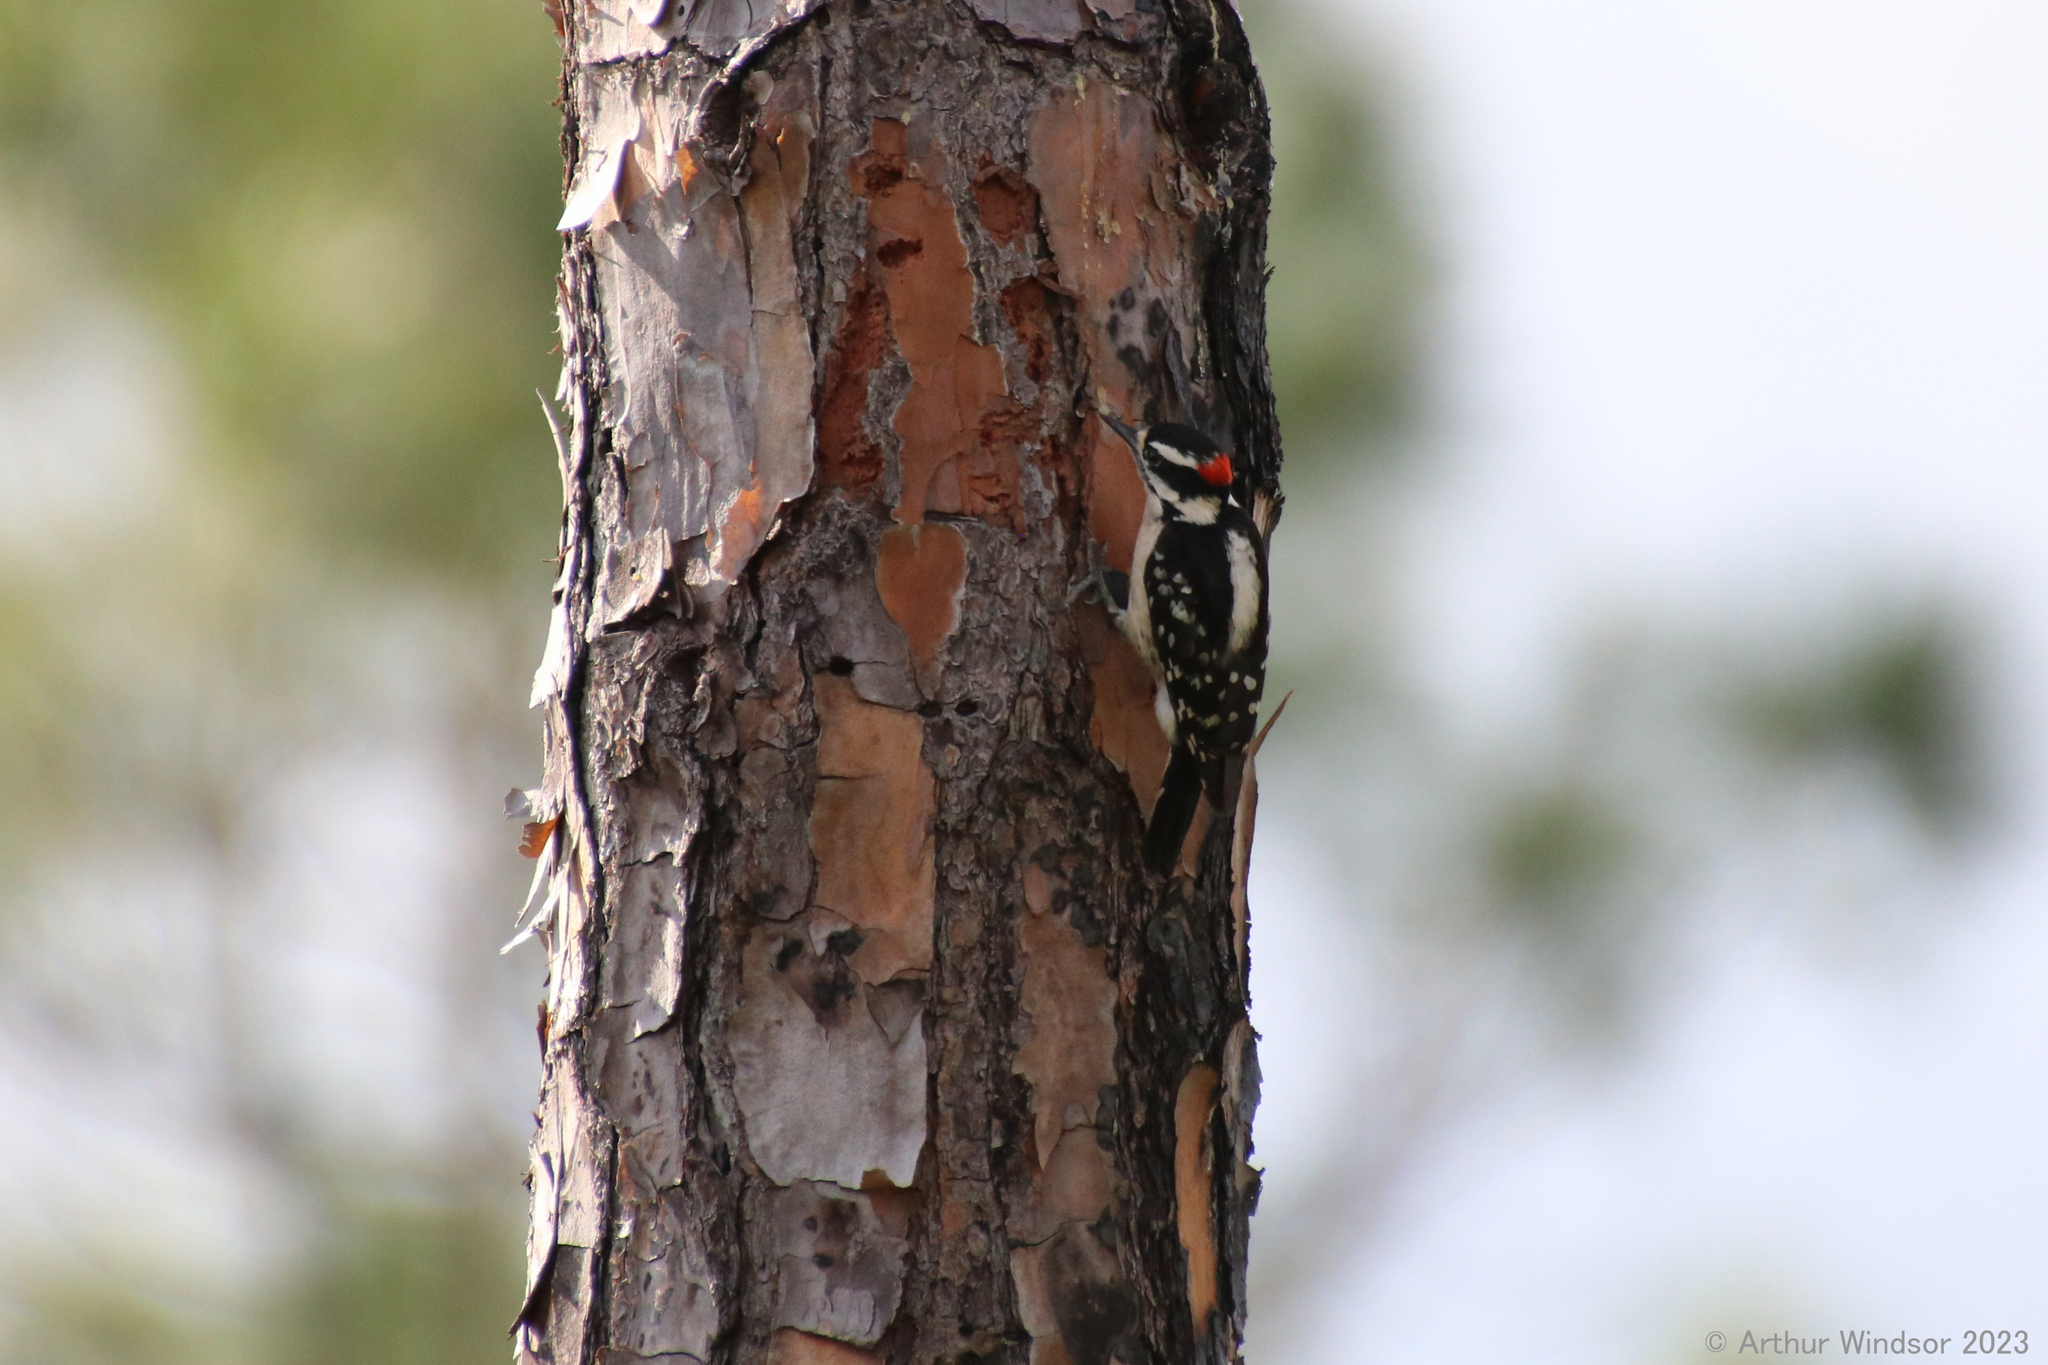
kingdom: Animalia
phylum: Chordata
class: Aves
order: Piciformes
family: Picidae
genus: Leuconotopicus
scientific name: Leuconotopicus villosus
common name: Hairy woodpecker
